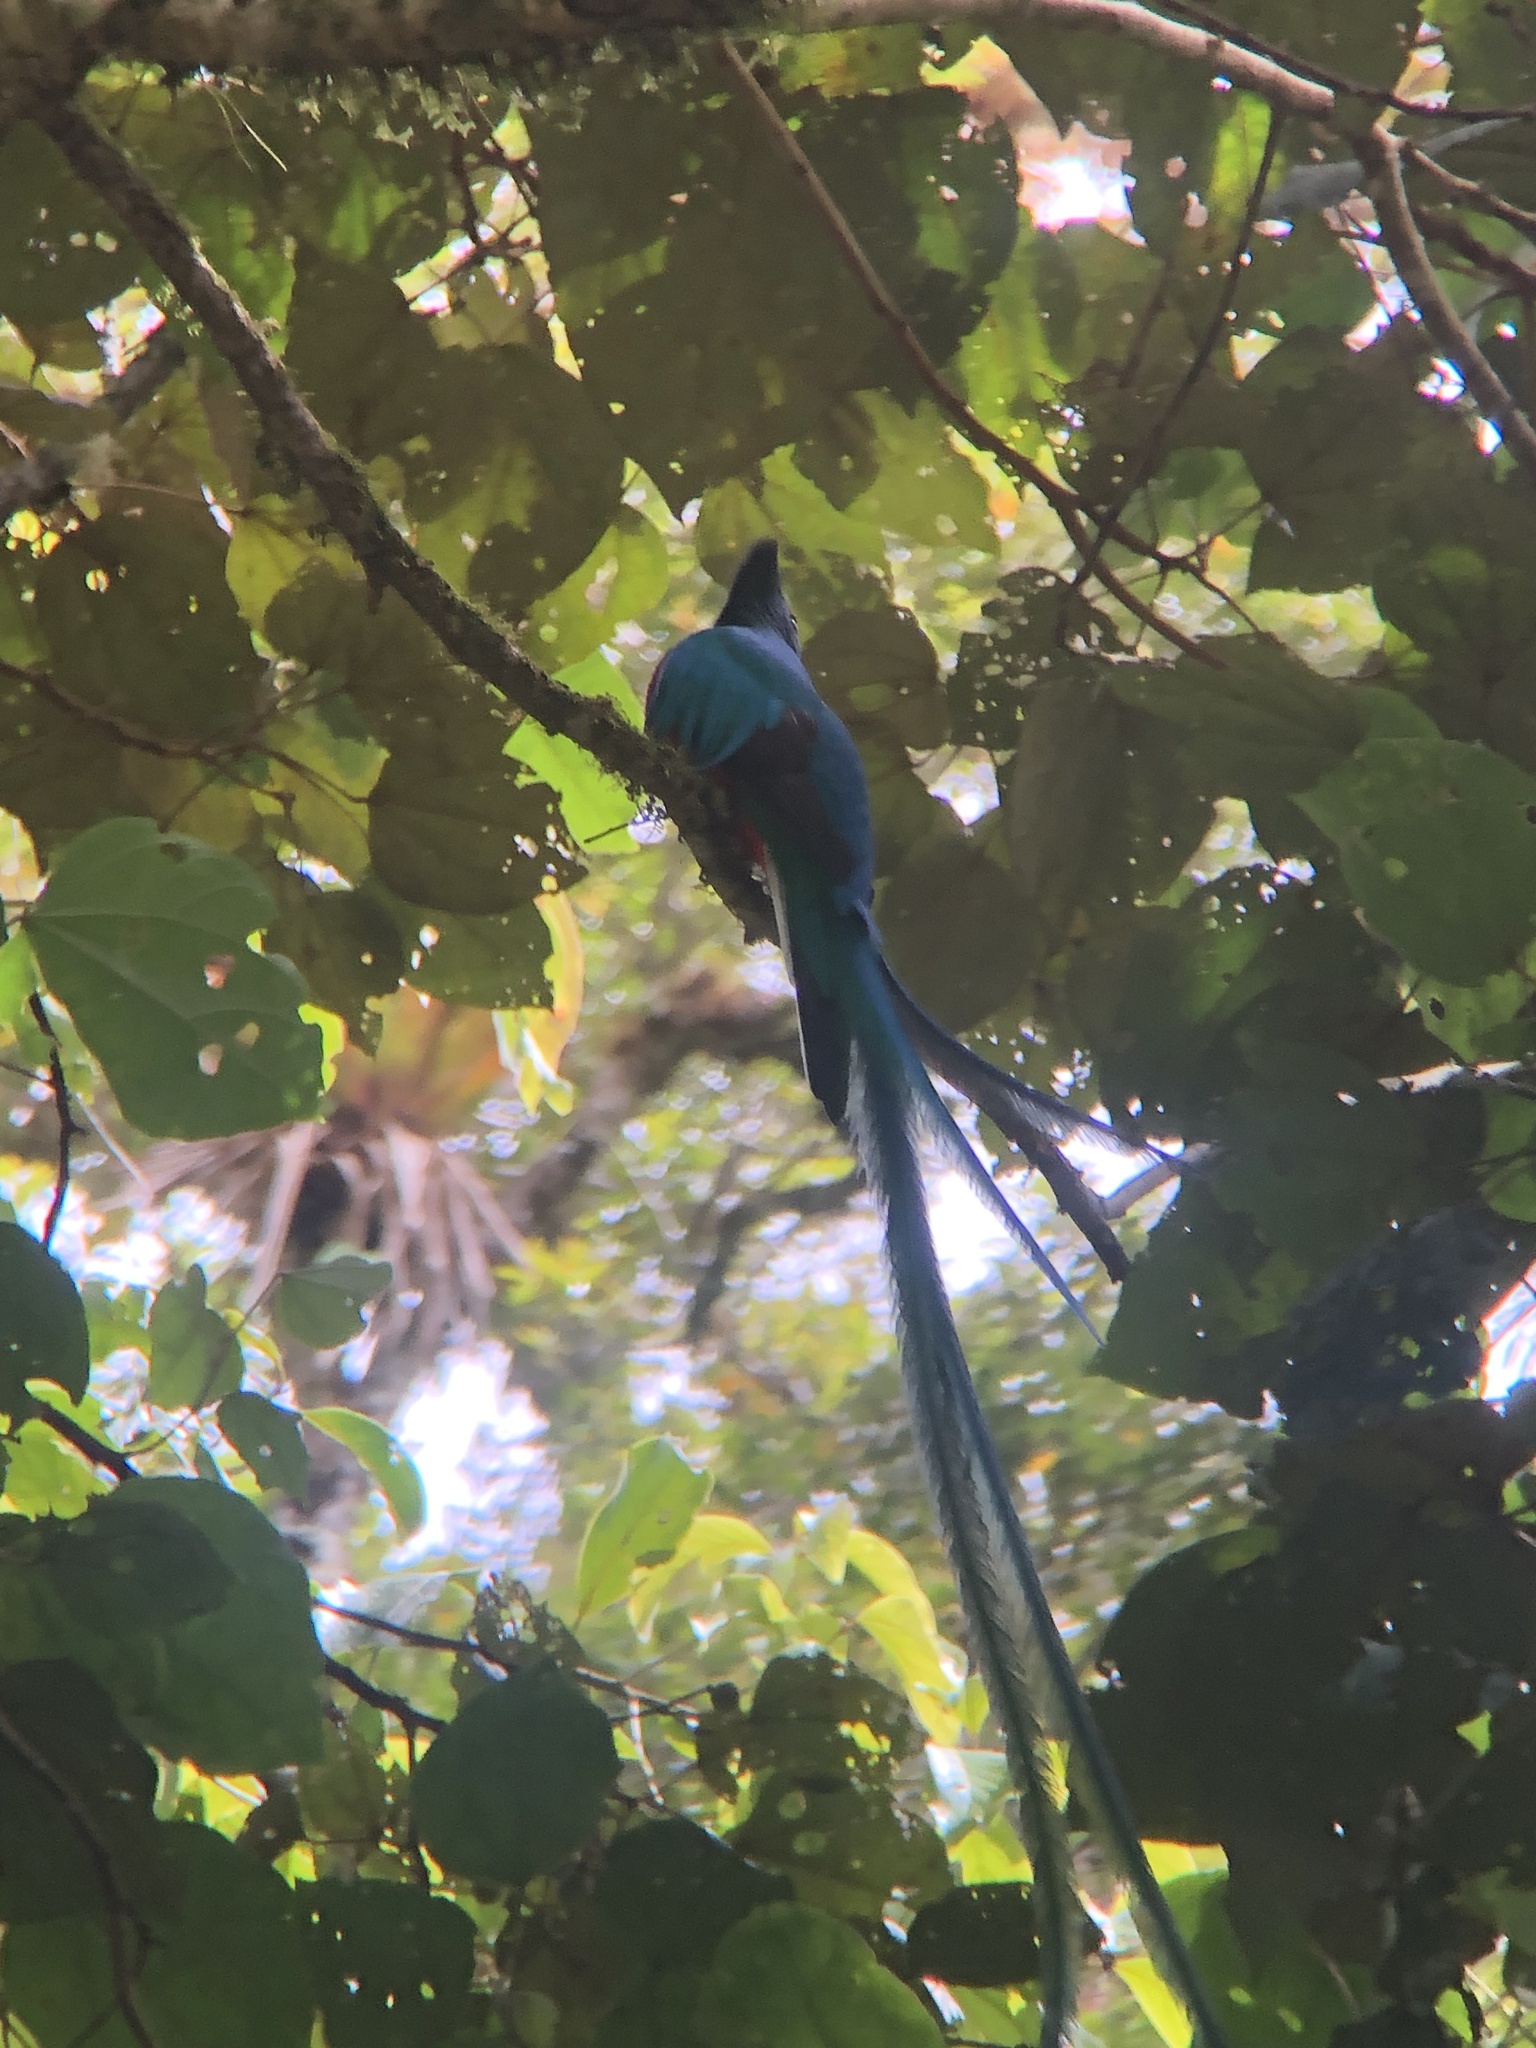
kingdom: Animalia
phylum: Chordata
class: Aves
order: Trogoniformes
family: Trogonidae
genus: Pharomachrus
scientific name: Pharomachrus mocinno
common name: Resplendent quetzal
